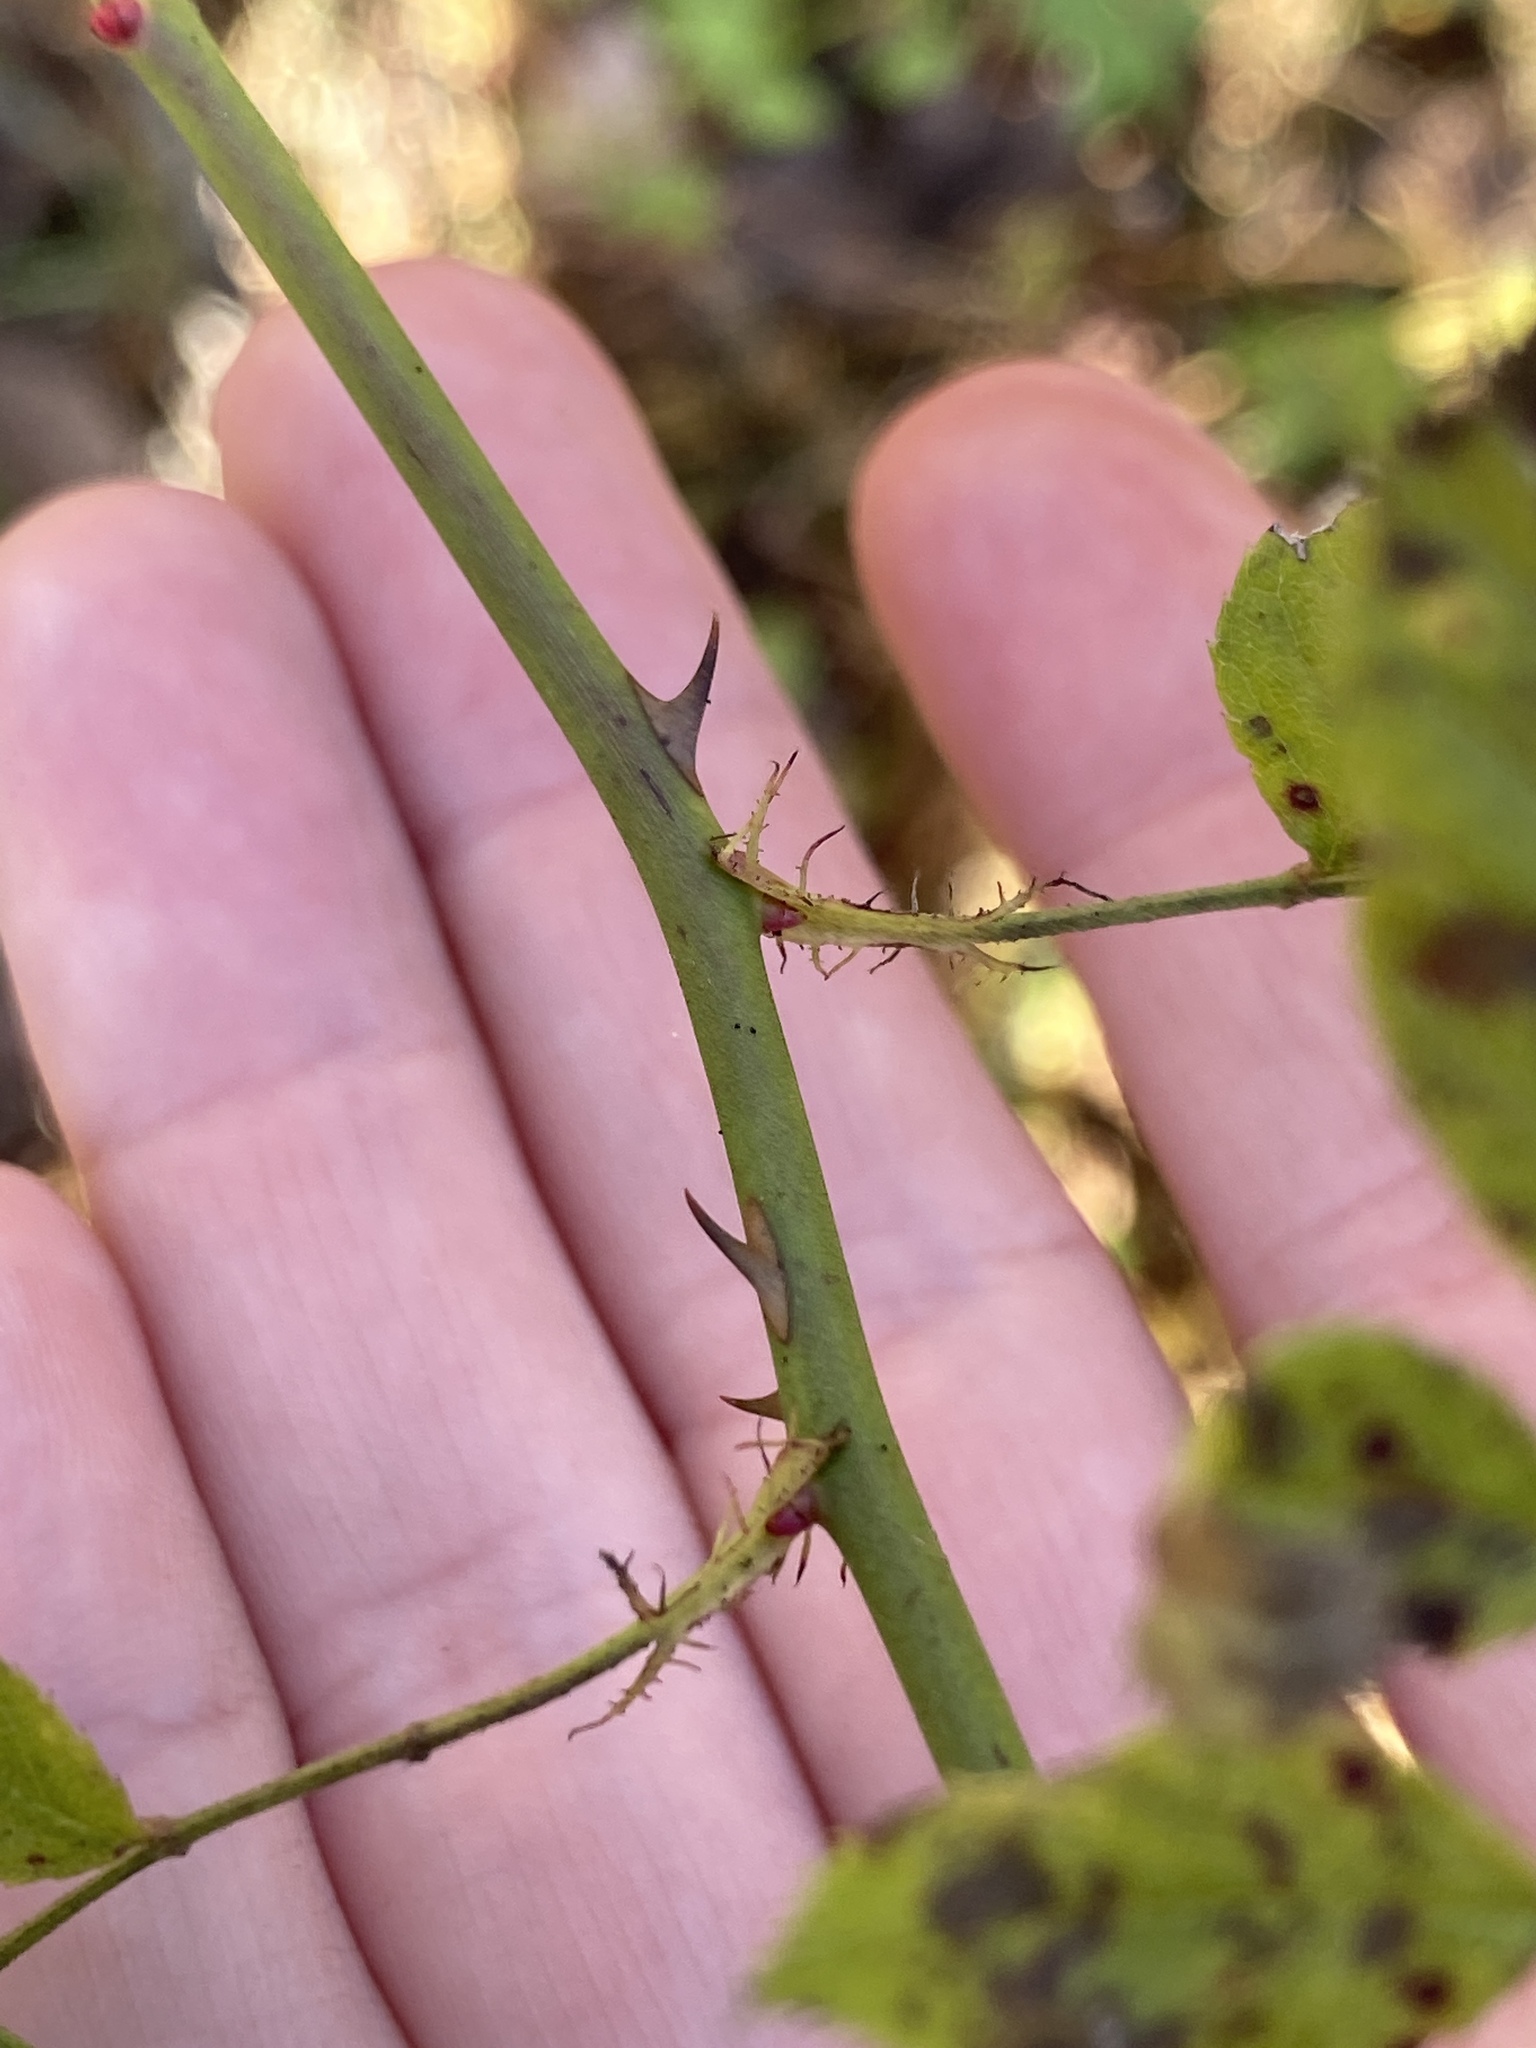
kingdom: Plantae
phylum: Tracheophyta
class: Magnoliopsida
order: Rosales
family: Rosaceae
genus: Rosa
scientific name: Rosa multiflora
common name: Multiflora rose
